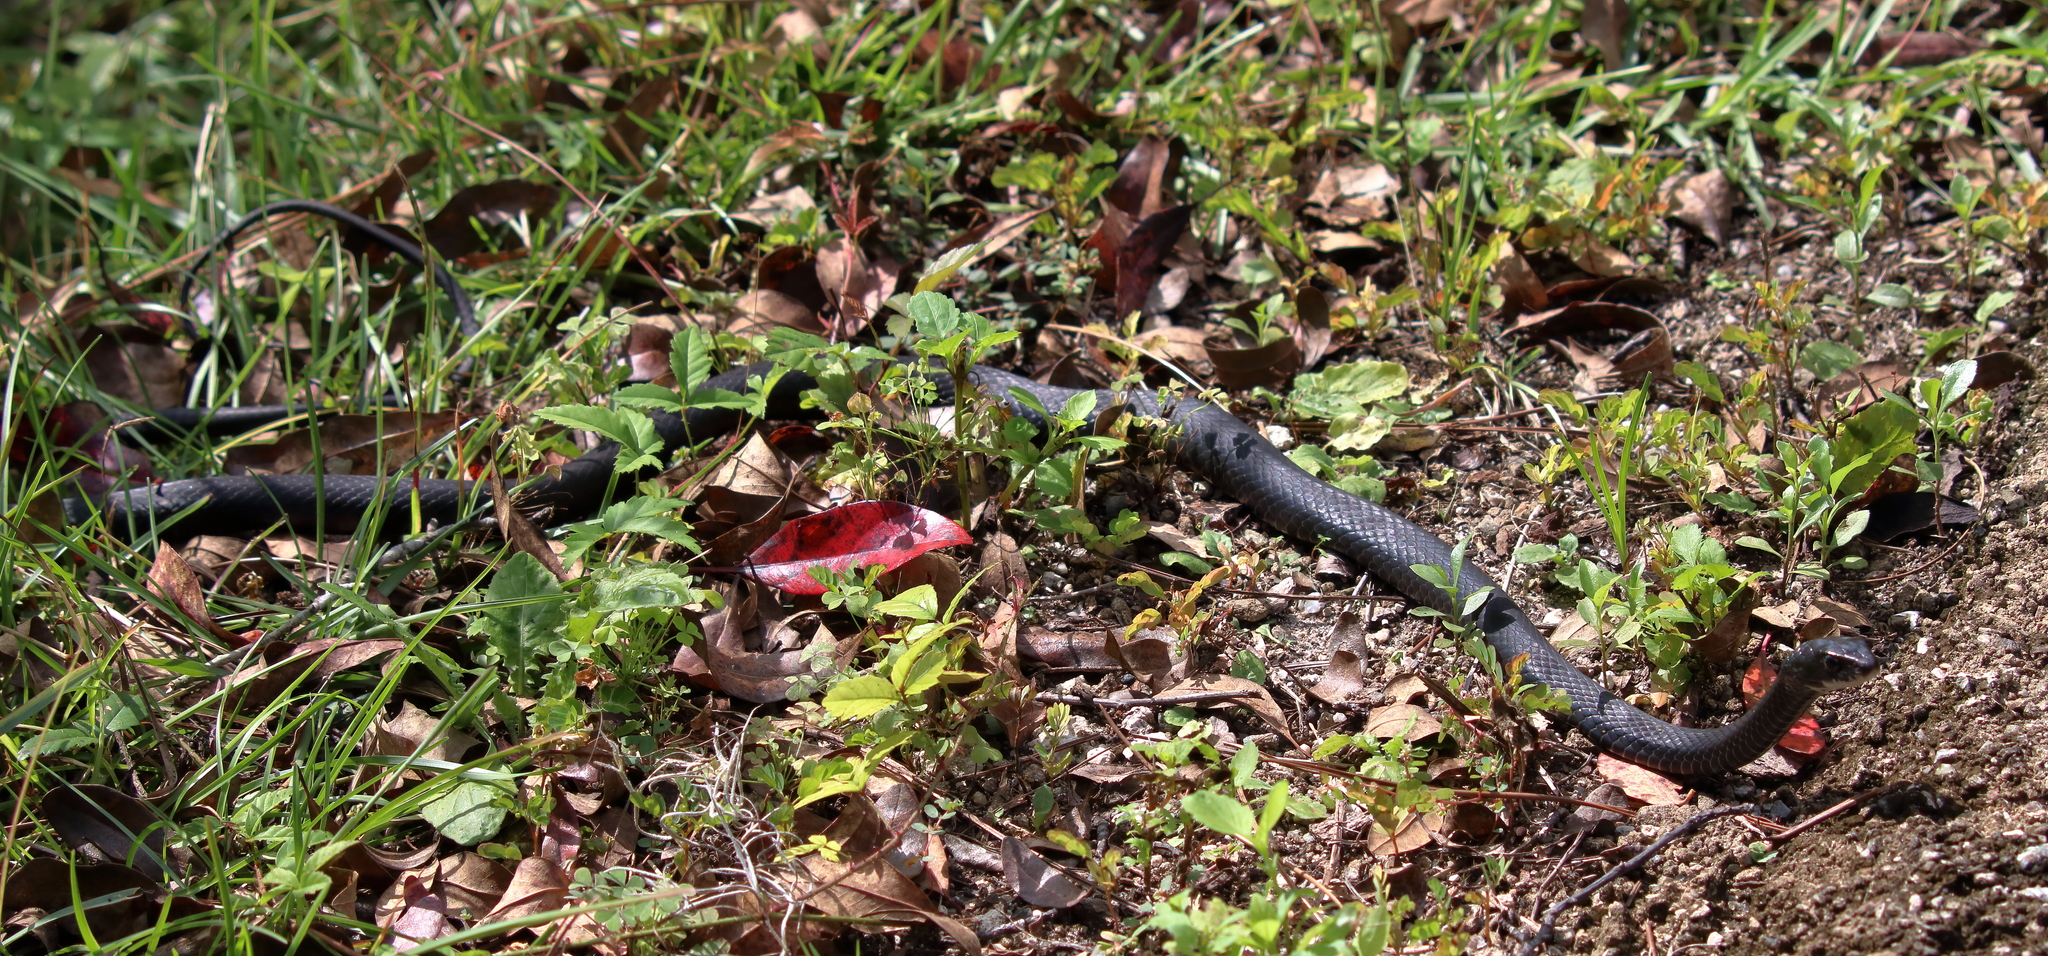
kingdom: Animalia
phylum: Chordata
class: Squamata
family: Colubridae
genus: Coluber
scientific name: Coluber constrictor
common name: Eastern racer
